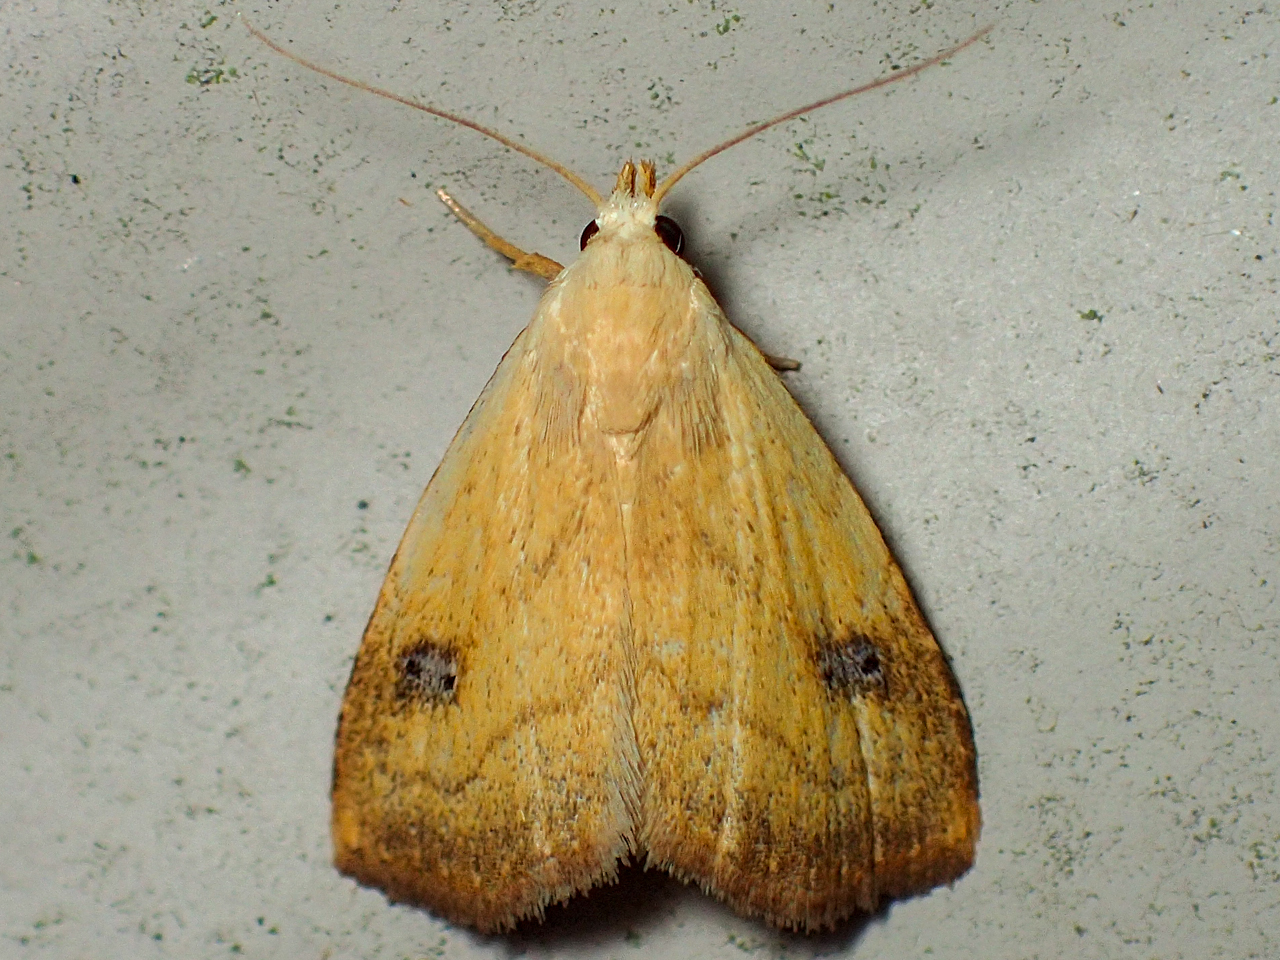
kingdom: Animalia
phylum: Arthropoda
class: Insecta
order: Lepidoptera
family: Erebidae
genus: Rivula
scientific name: Rivula propinqualis
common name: Spotted grass moth
